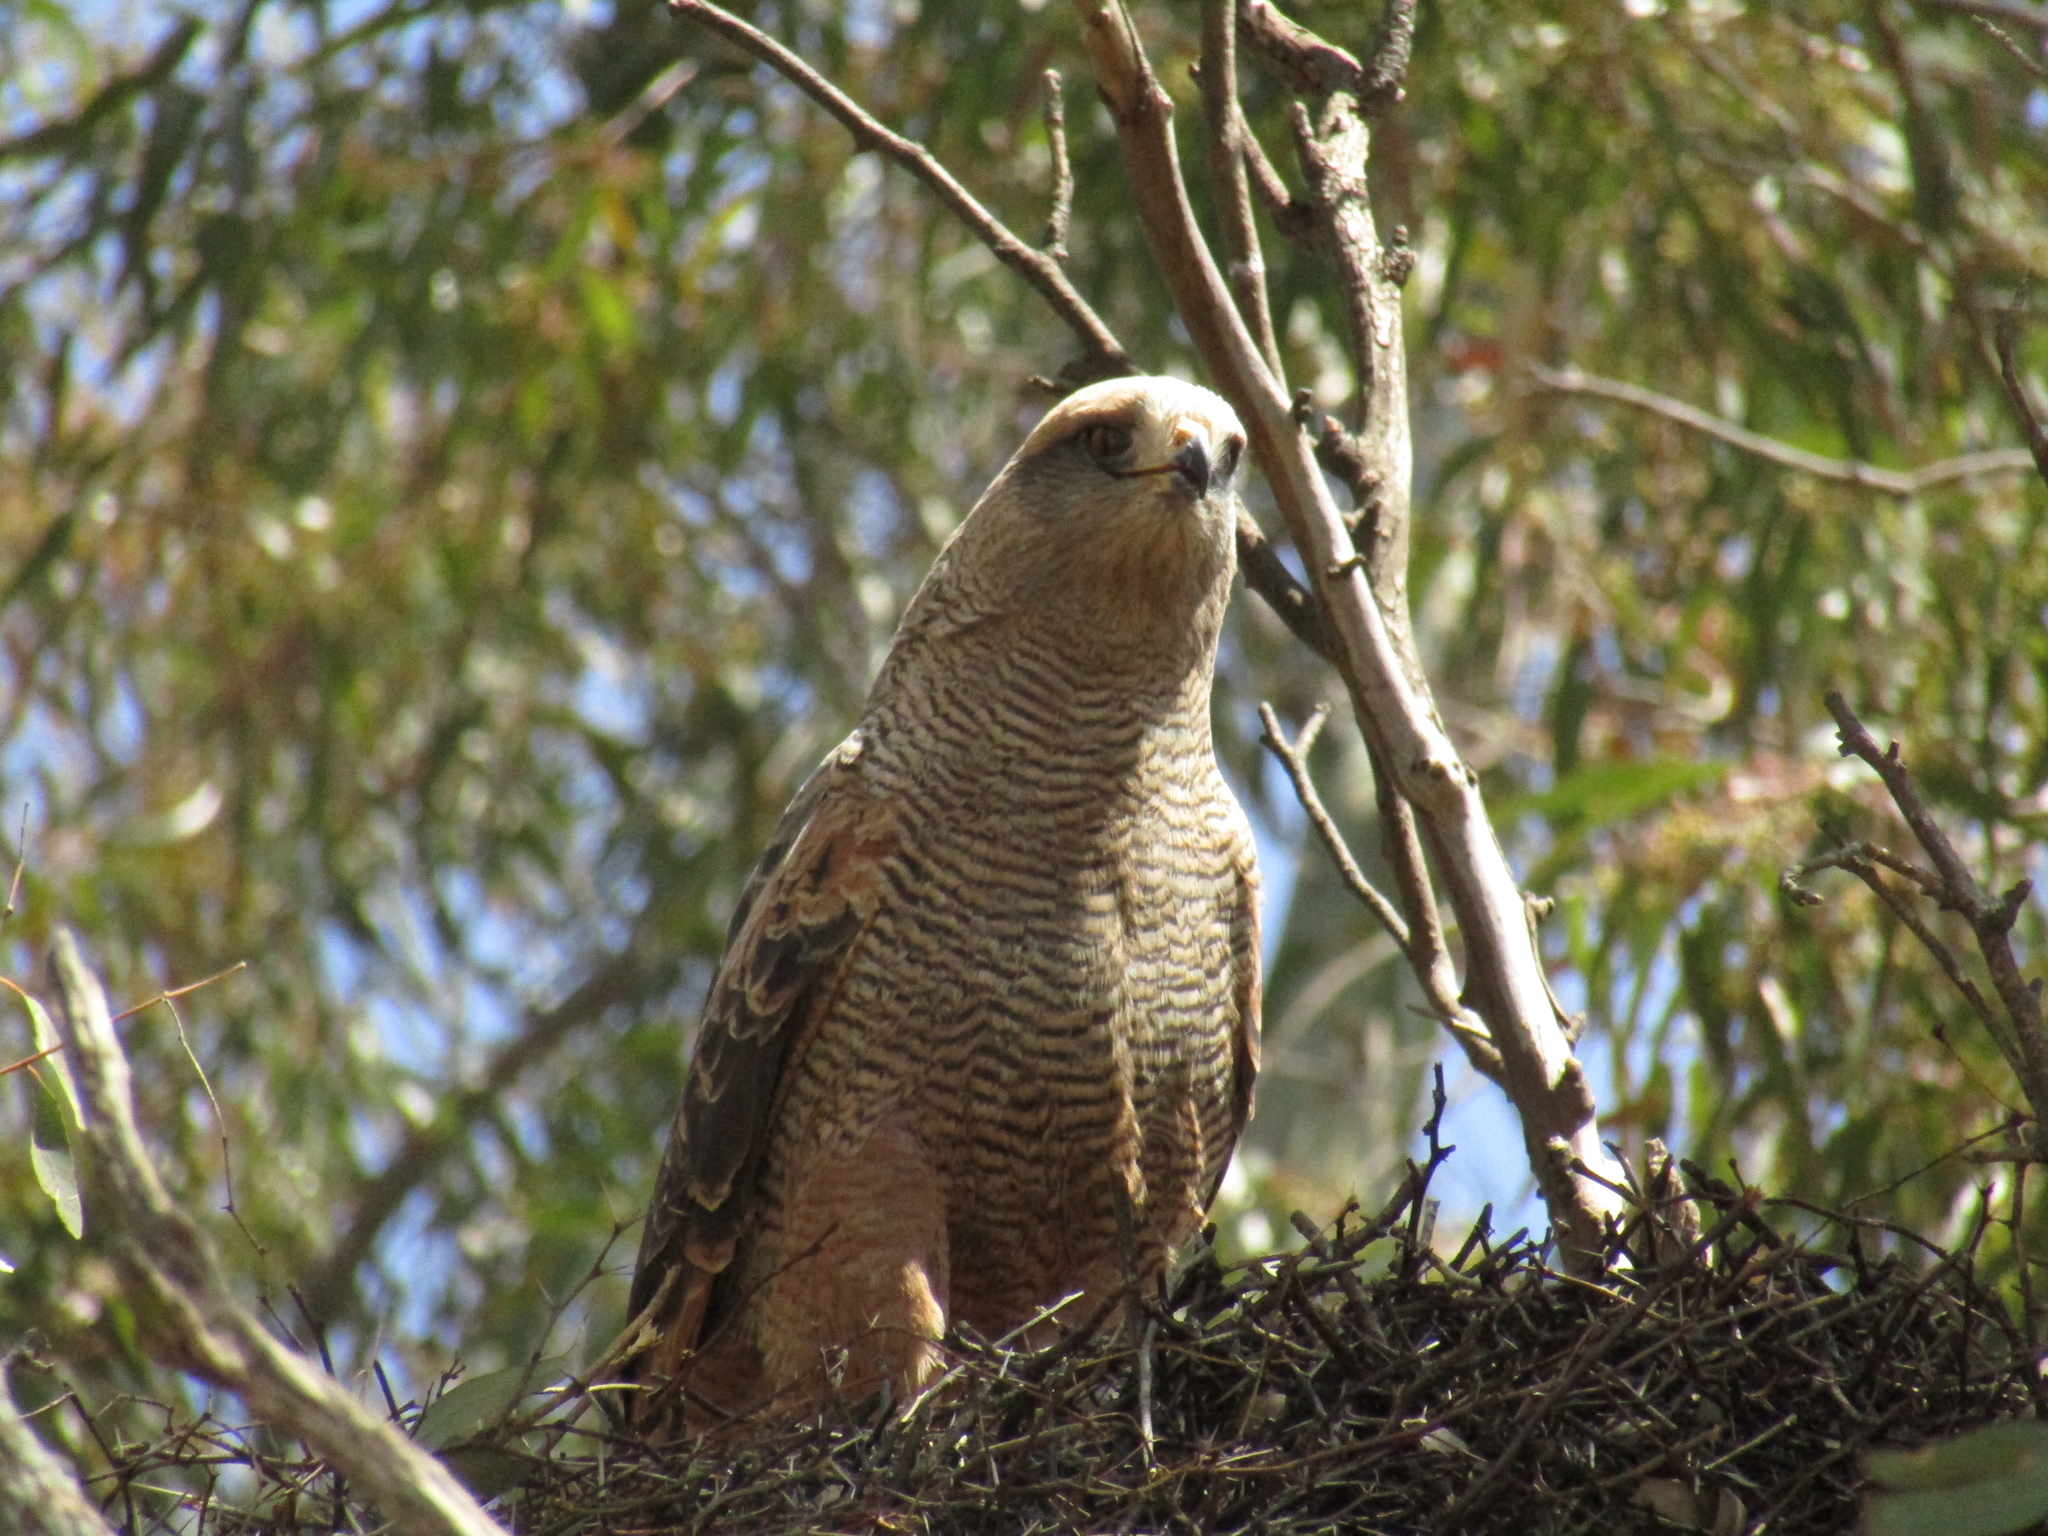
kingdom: Animalia
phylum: Chordata
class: Aves
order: Accipitriformes
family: Accipitridae
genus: Buteogallus
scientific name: Buteogallus meridionalis
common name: Savanna hawk
